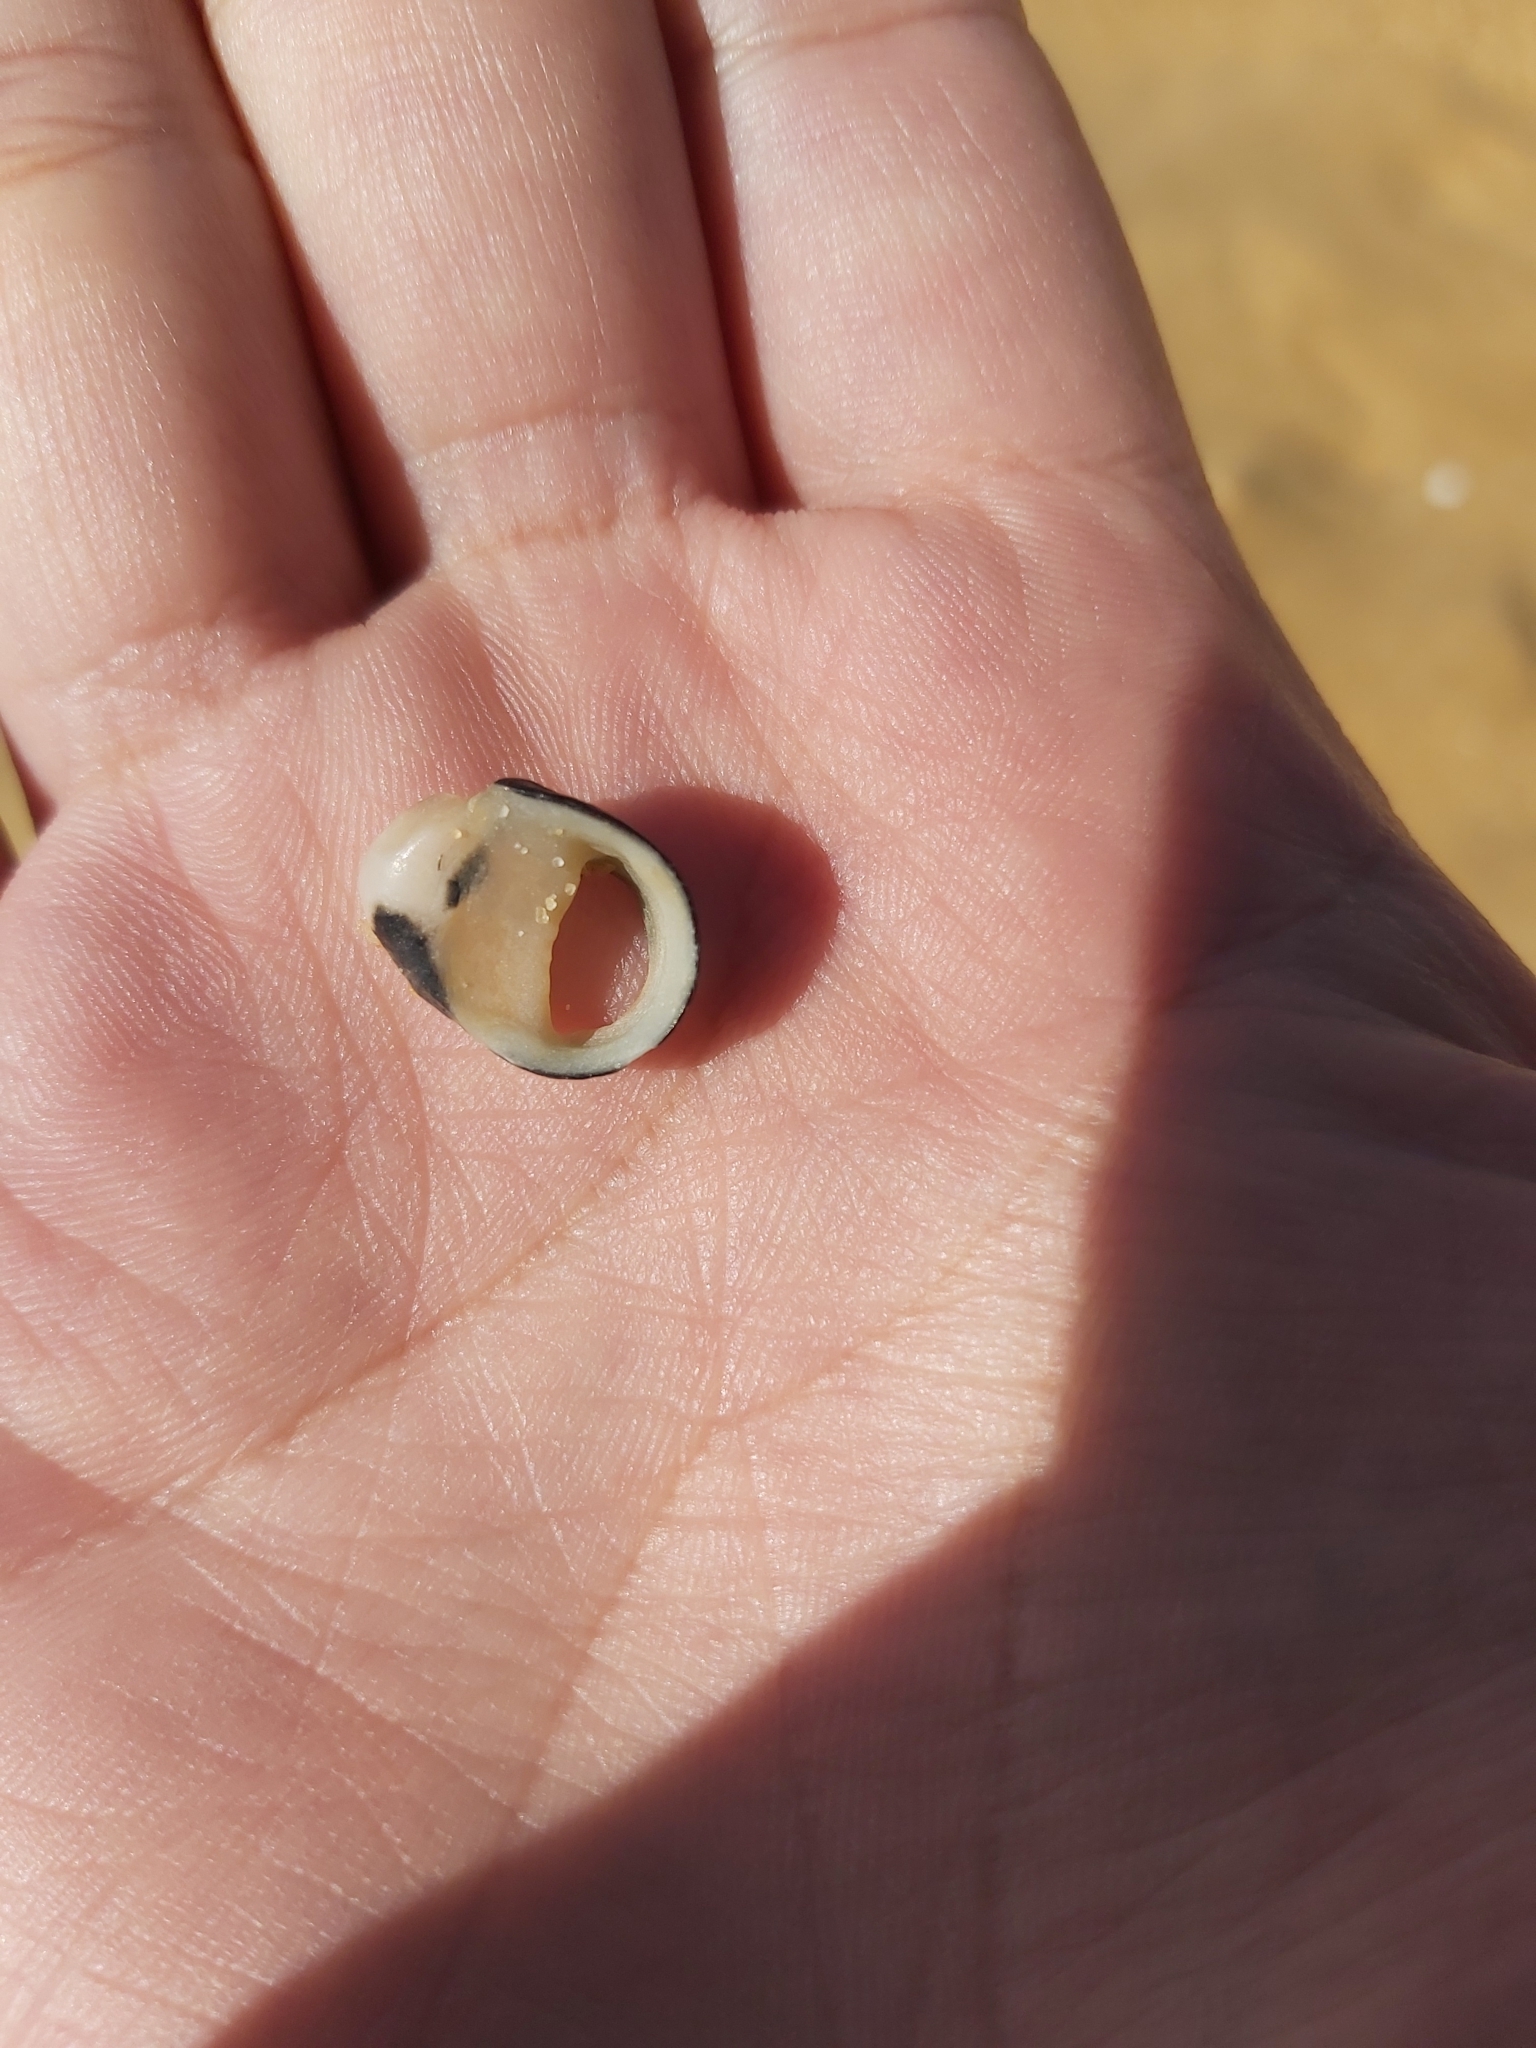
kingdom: Animalia
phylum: Mollusca
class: Gastropoda
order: Cycloneritida
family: Neritidae
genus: Nerita
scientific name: Nerita melanotragus
